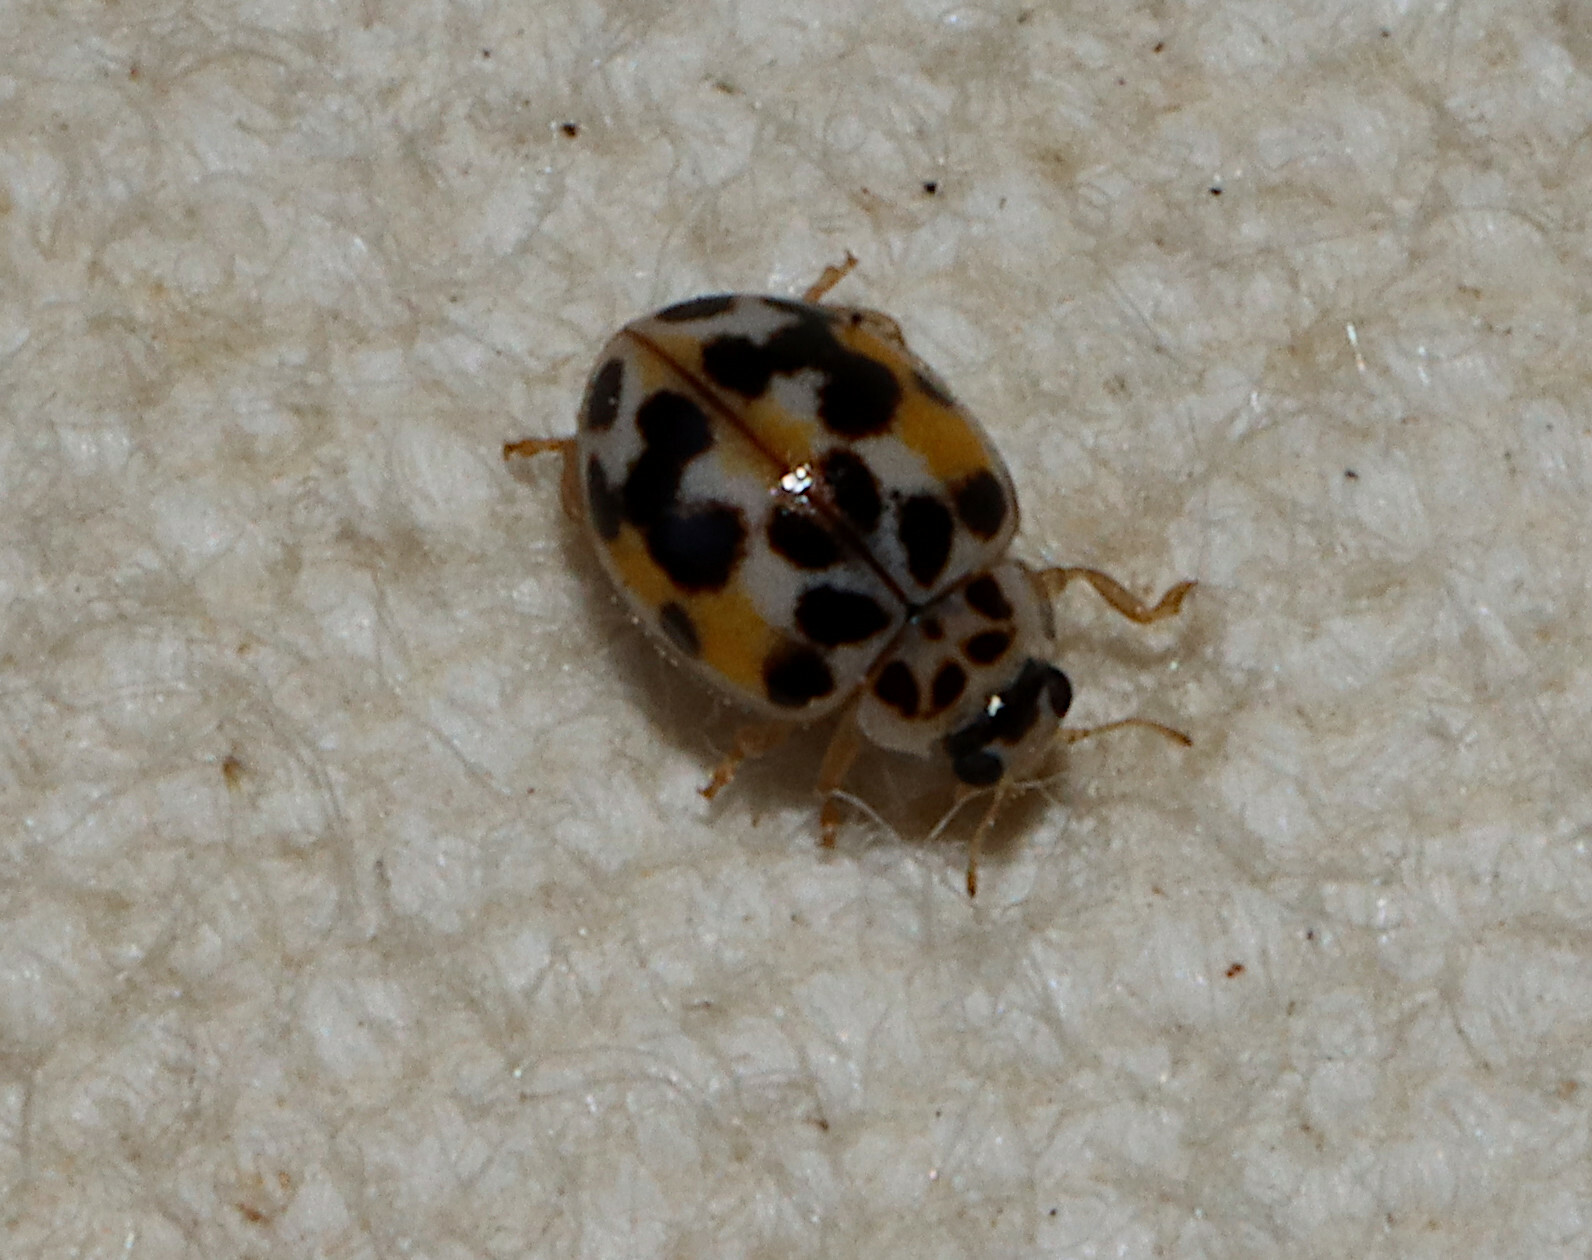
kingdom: Animalia
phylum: Arthropoda
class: Insecta
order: Coleoptera
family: Coccinellidae
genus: Psyllobora
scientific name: Psyllobora vigintimaculata
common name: Ladybird beetle
